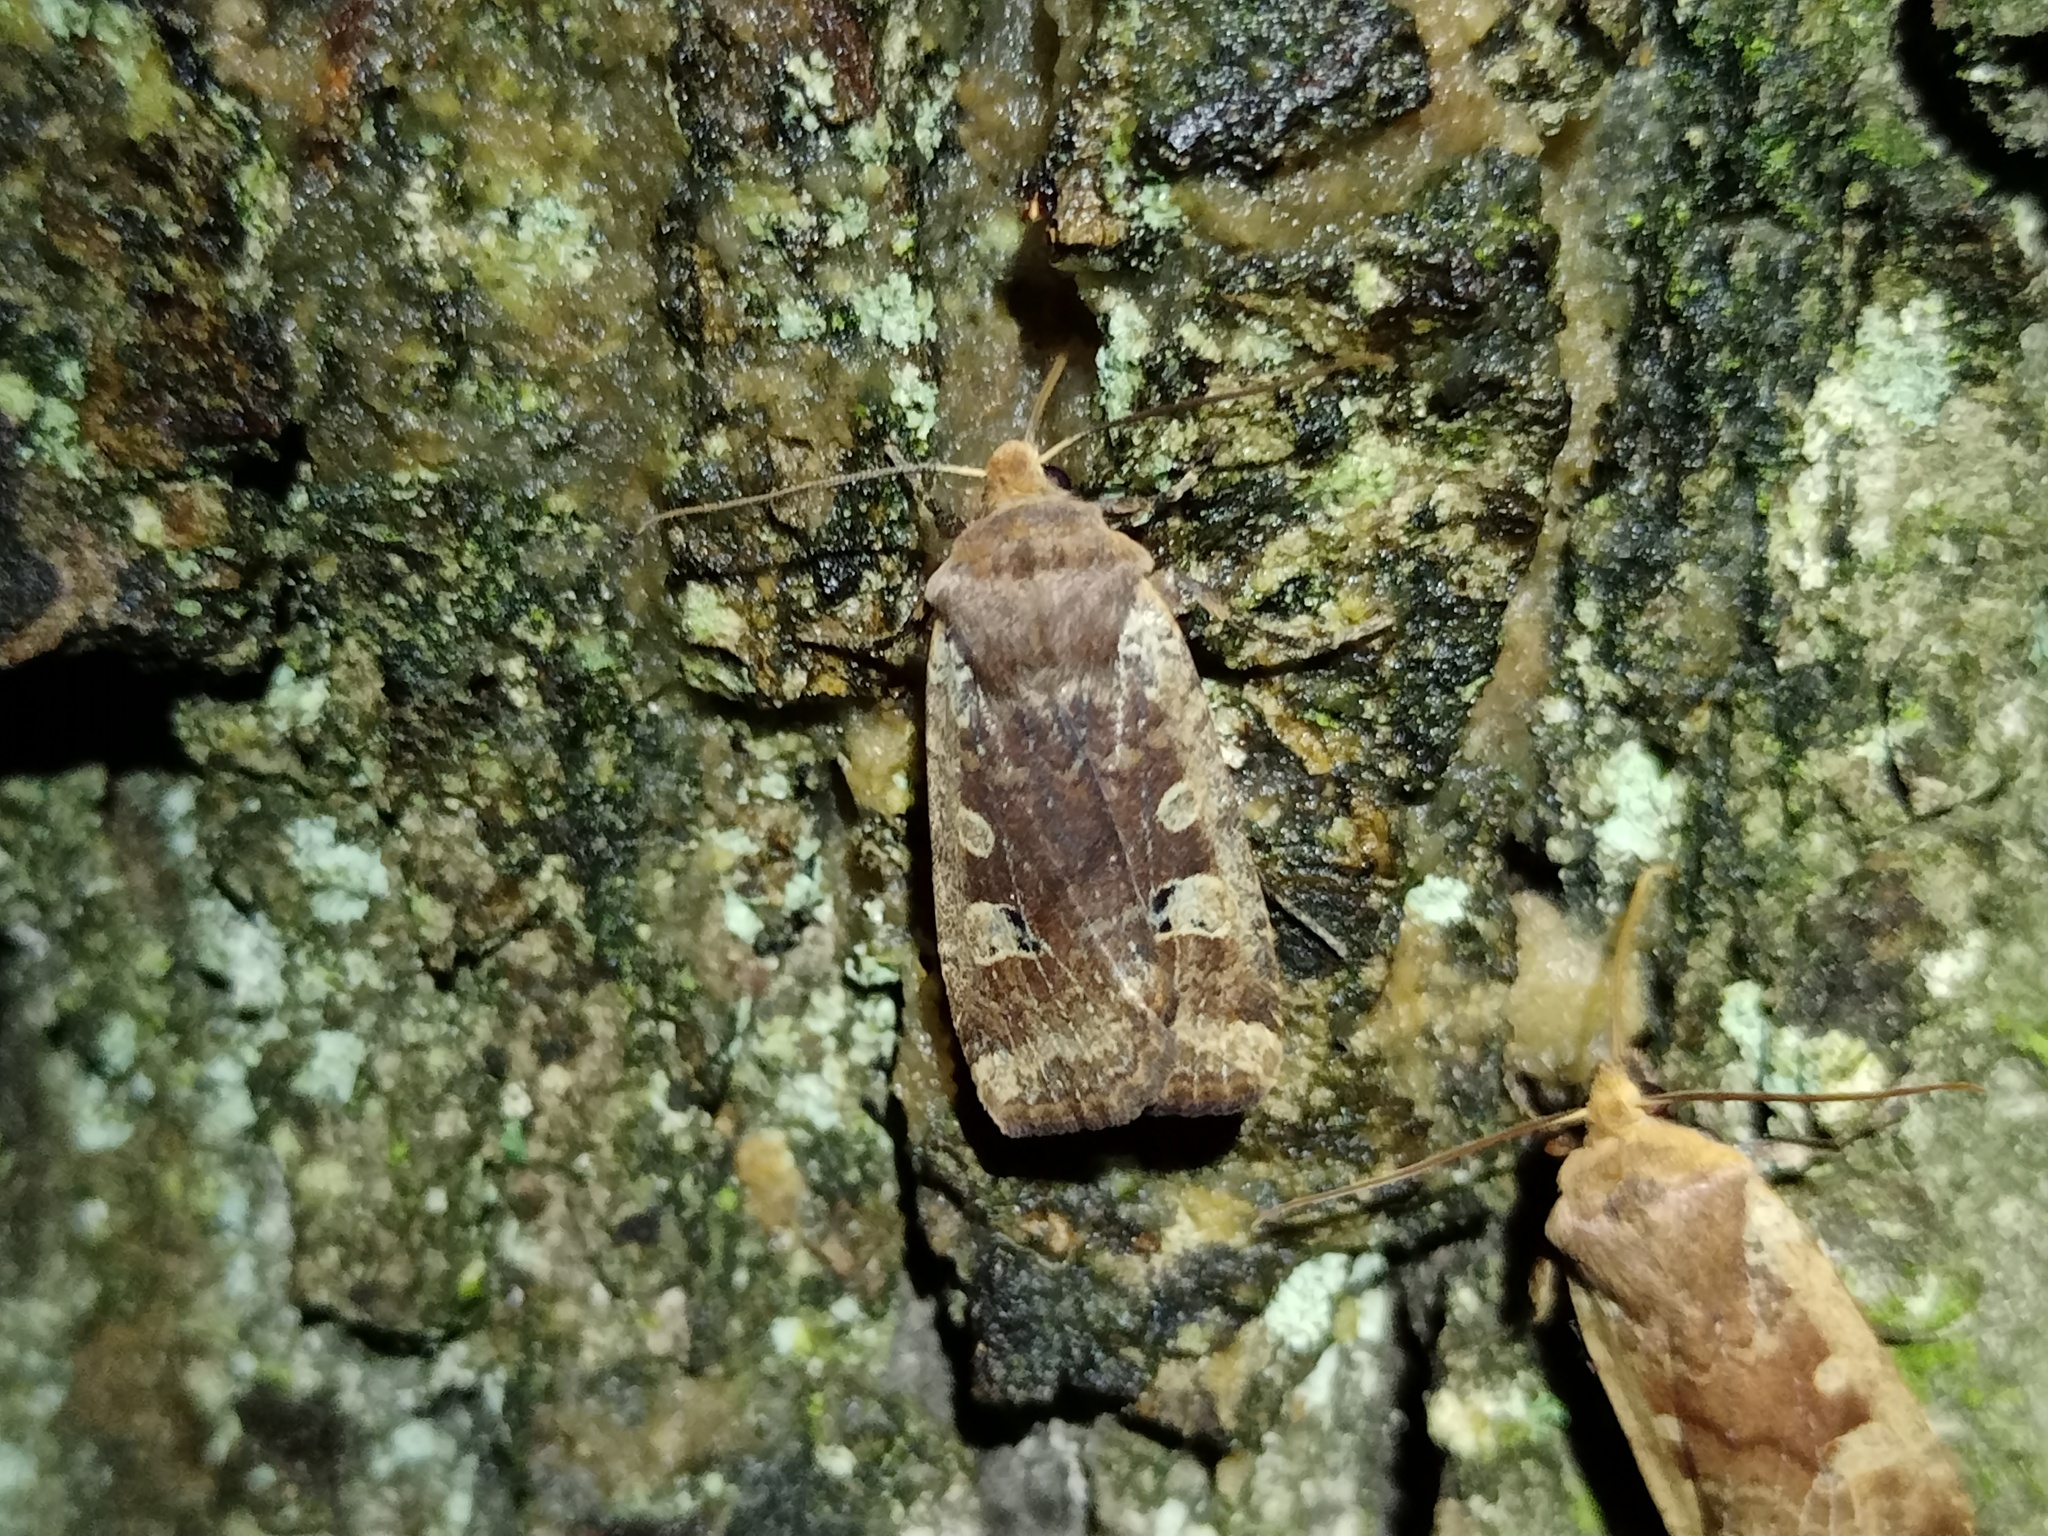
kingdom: Animalia
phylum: Arthropoda
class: Insecta
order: Lepidoptera
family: Noctuidae
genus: Conistra
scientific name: Conistra erythrocephala
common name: Red-headed chestnut
